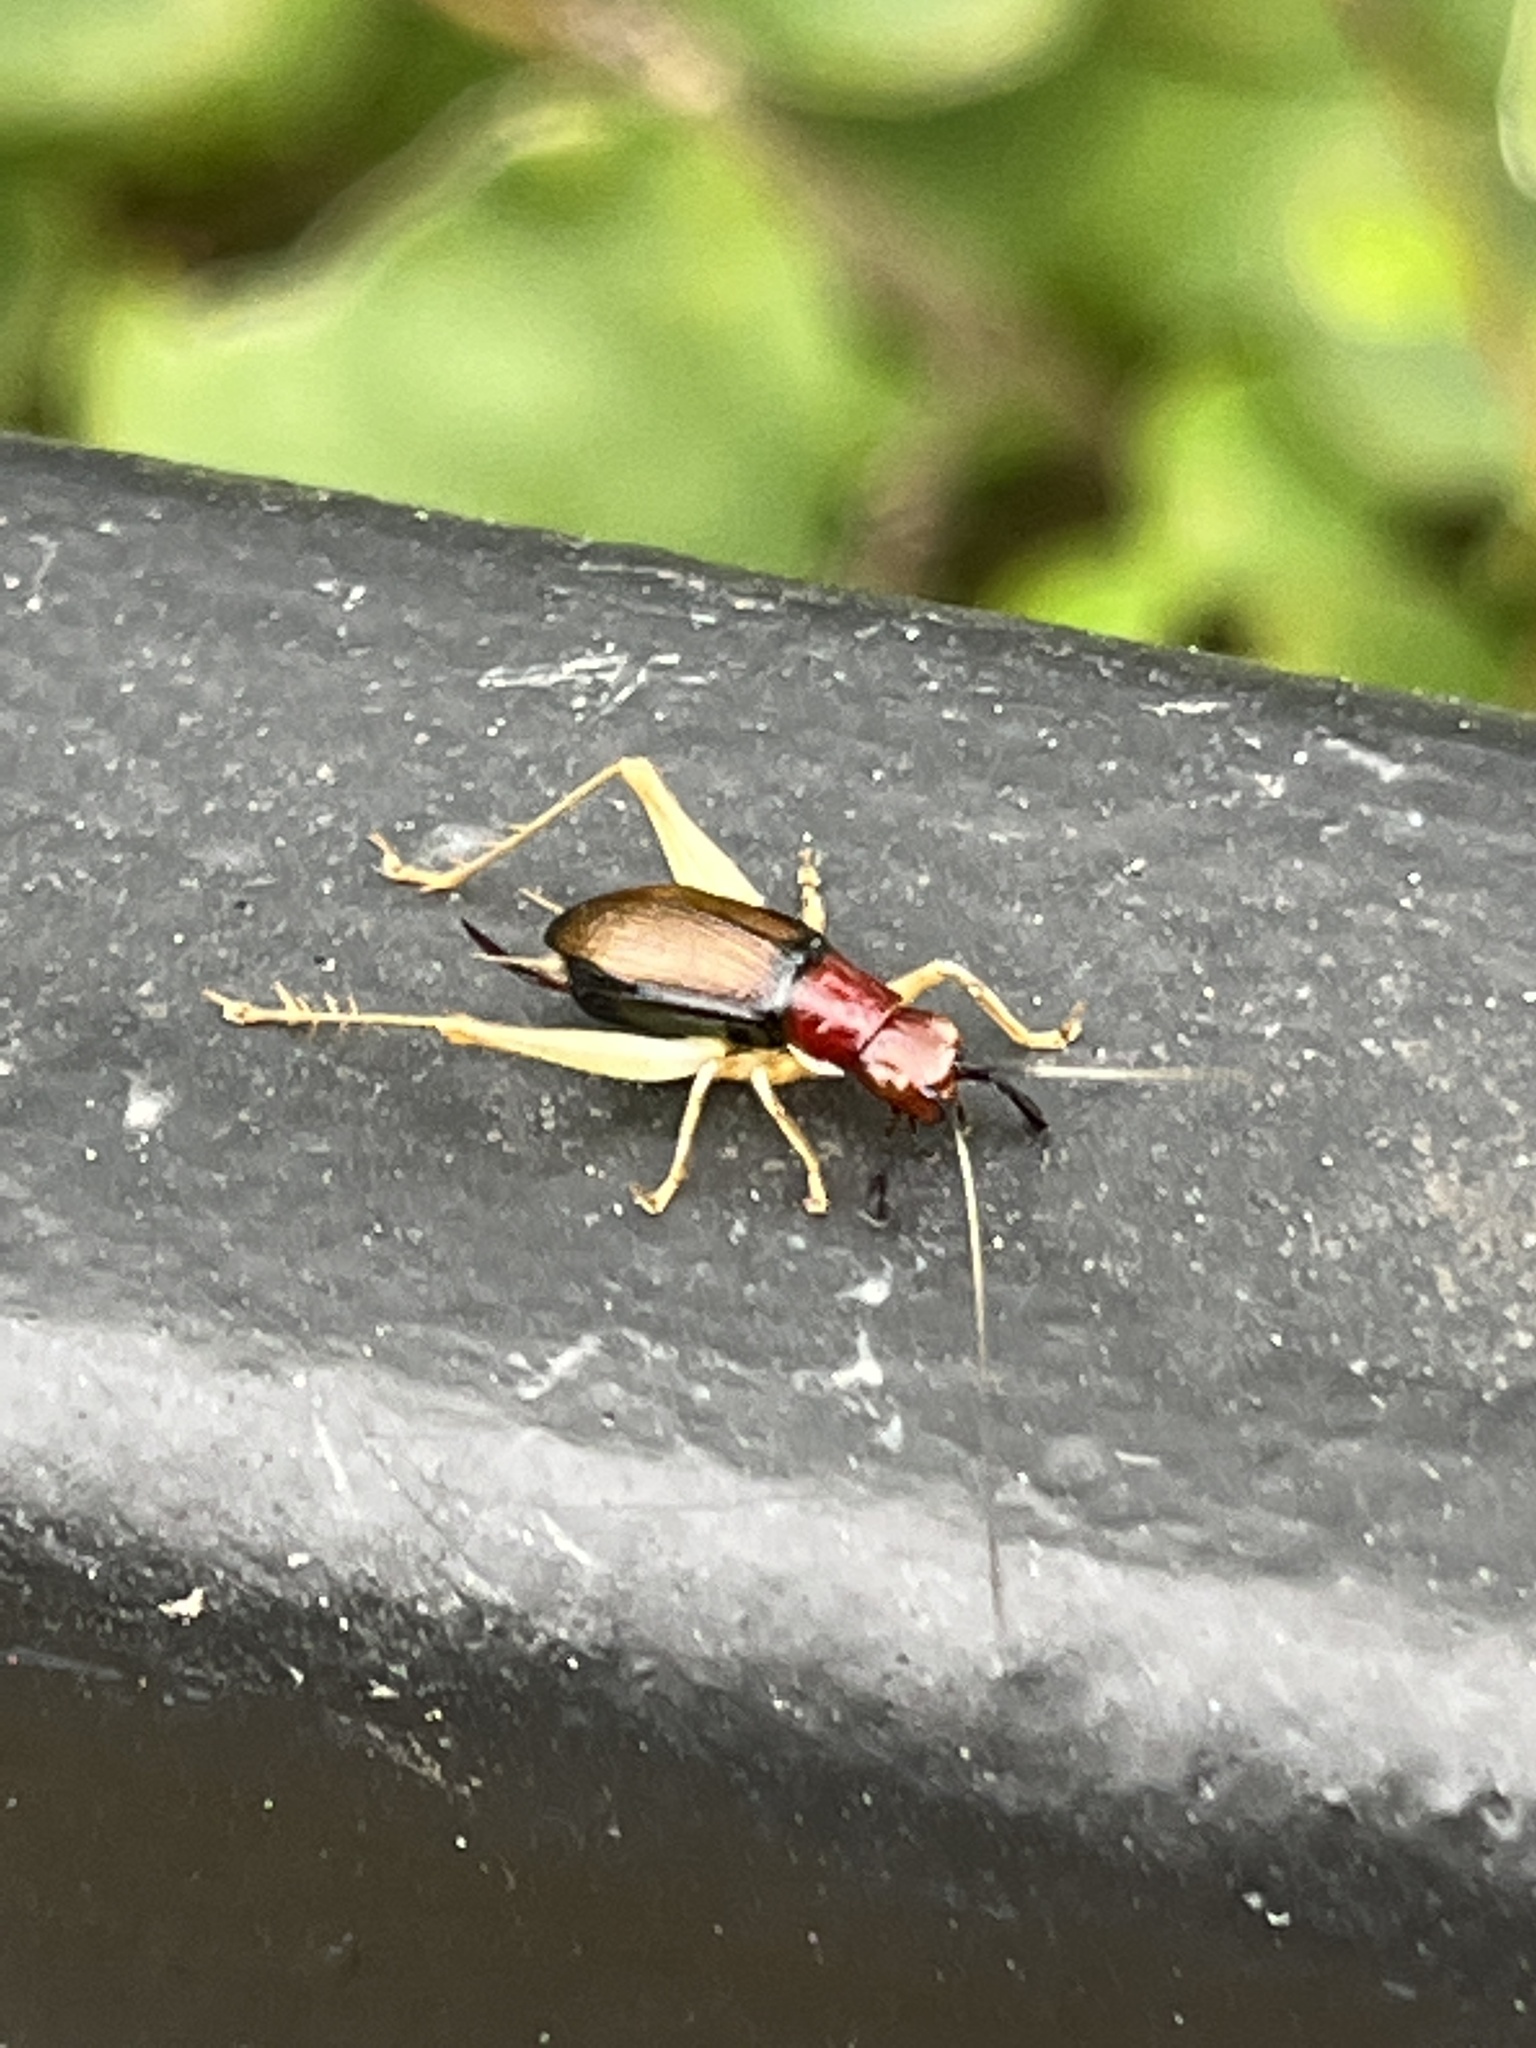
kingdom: Animalia
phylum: Arthropoda
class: Insecta
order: Orthoptera
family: Trigonidiidae
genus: Phyllopalpus
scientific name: Phyllopalpus pulchellus
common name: Handsome trig
